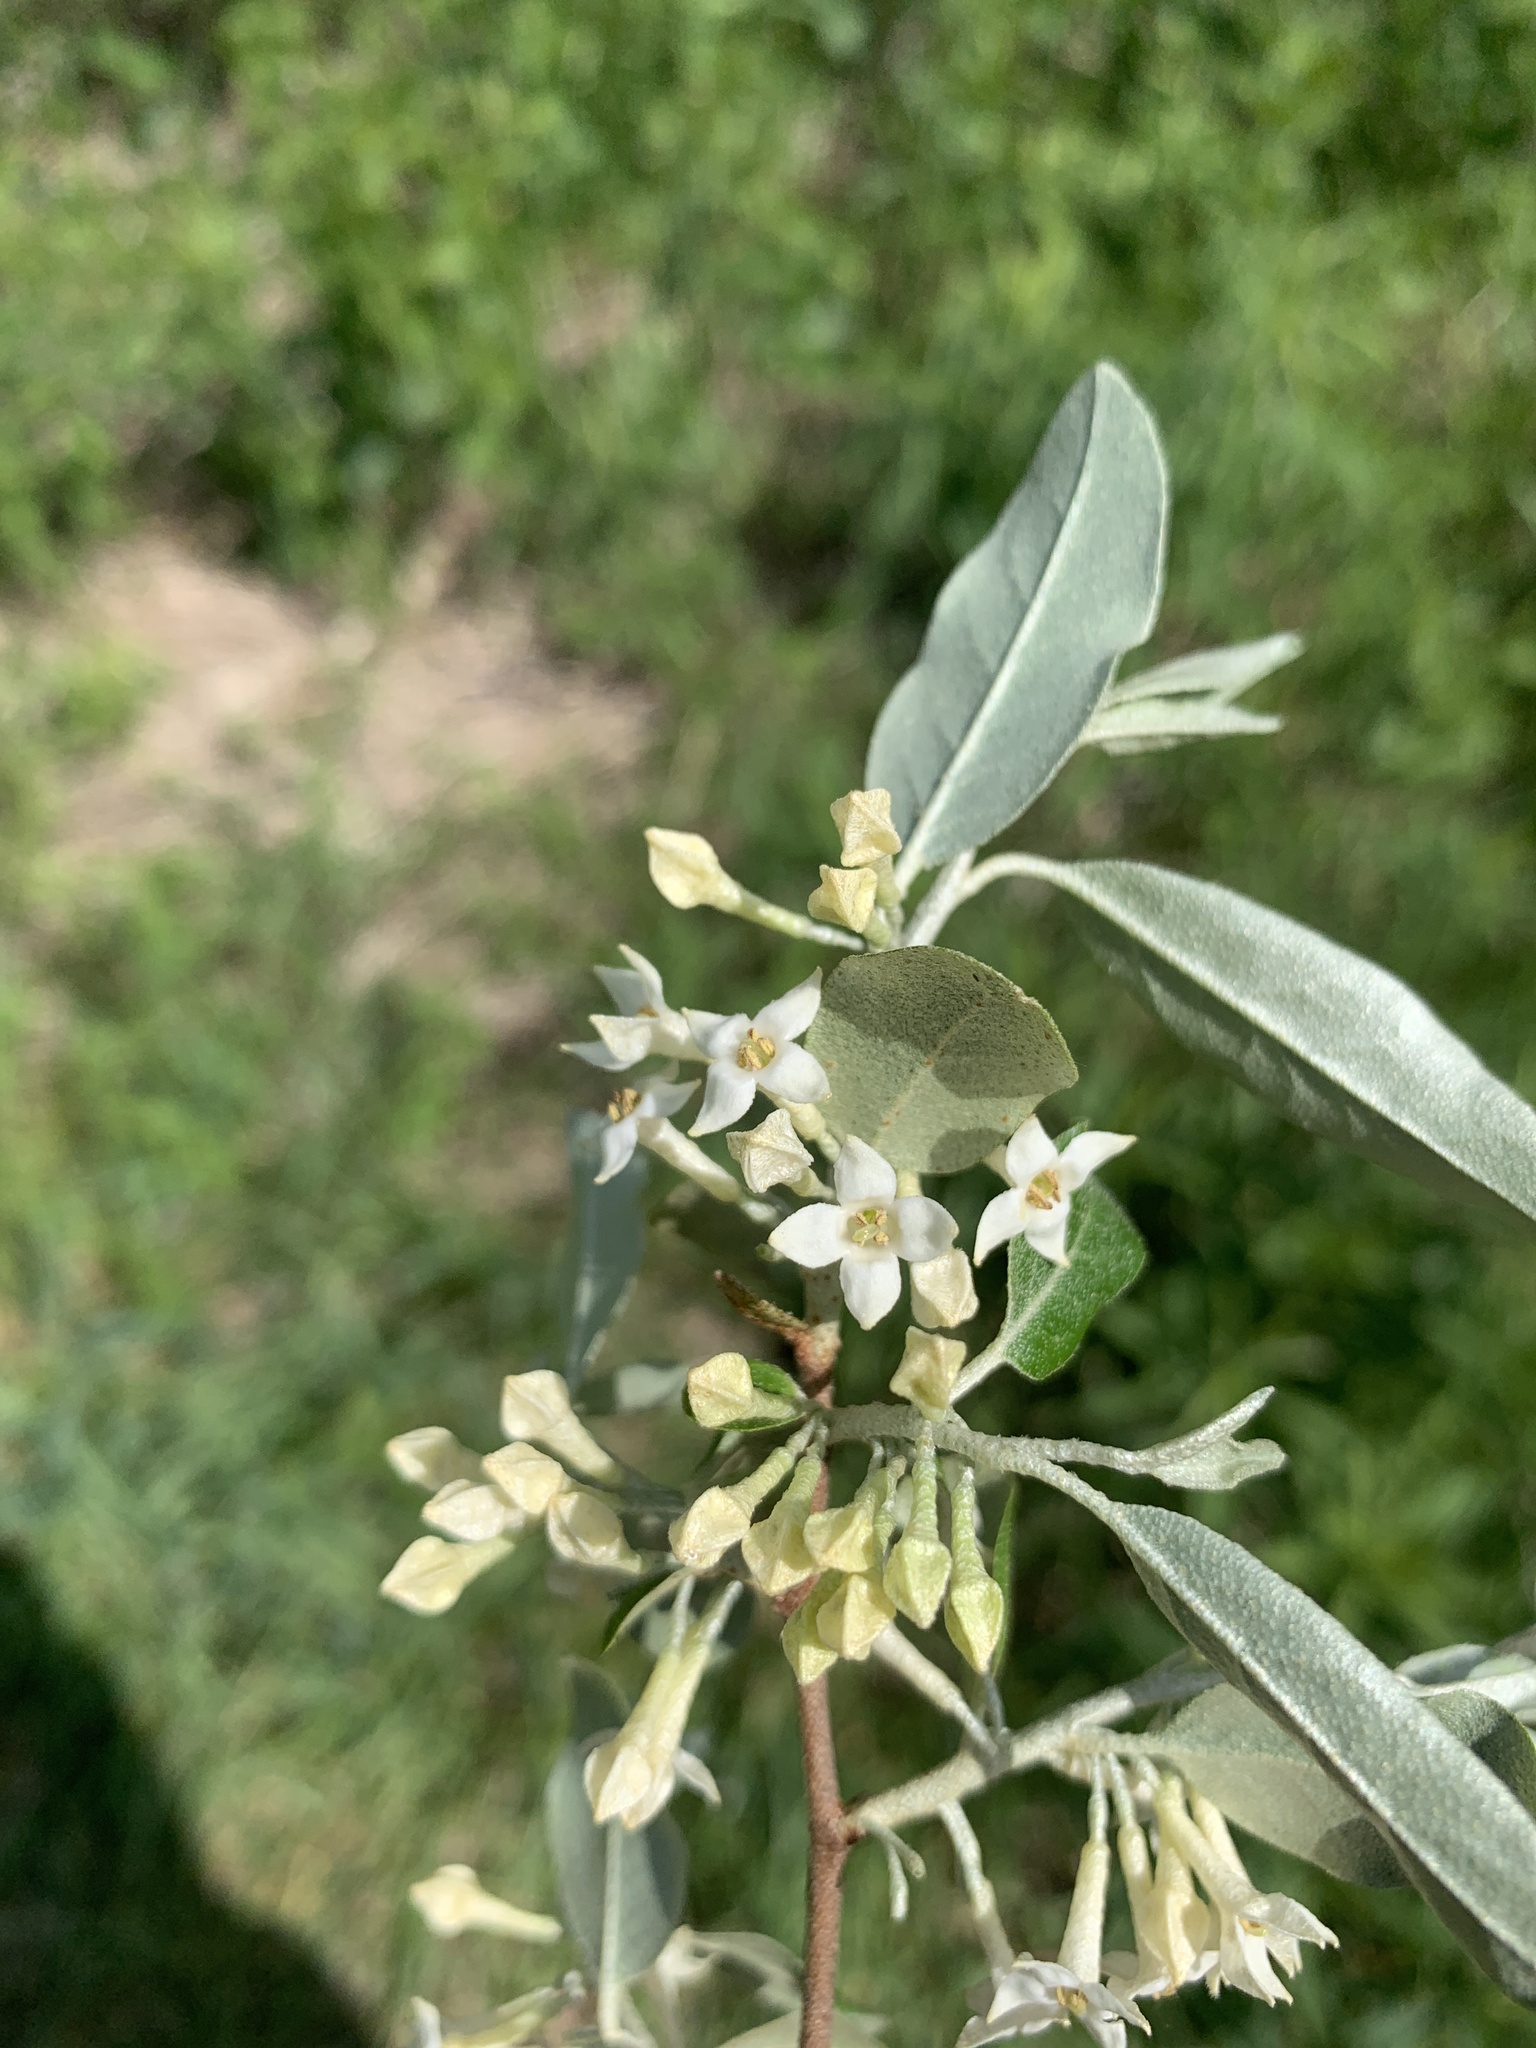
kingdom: Plantae
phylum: Tracheophyta
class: Magnoliopsida
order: Rosales
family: Elaeagnaceae
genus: Elaeagnus
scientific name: Elaeagnus umbellata
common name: Autumn olive
